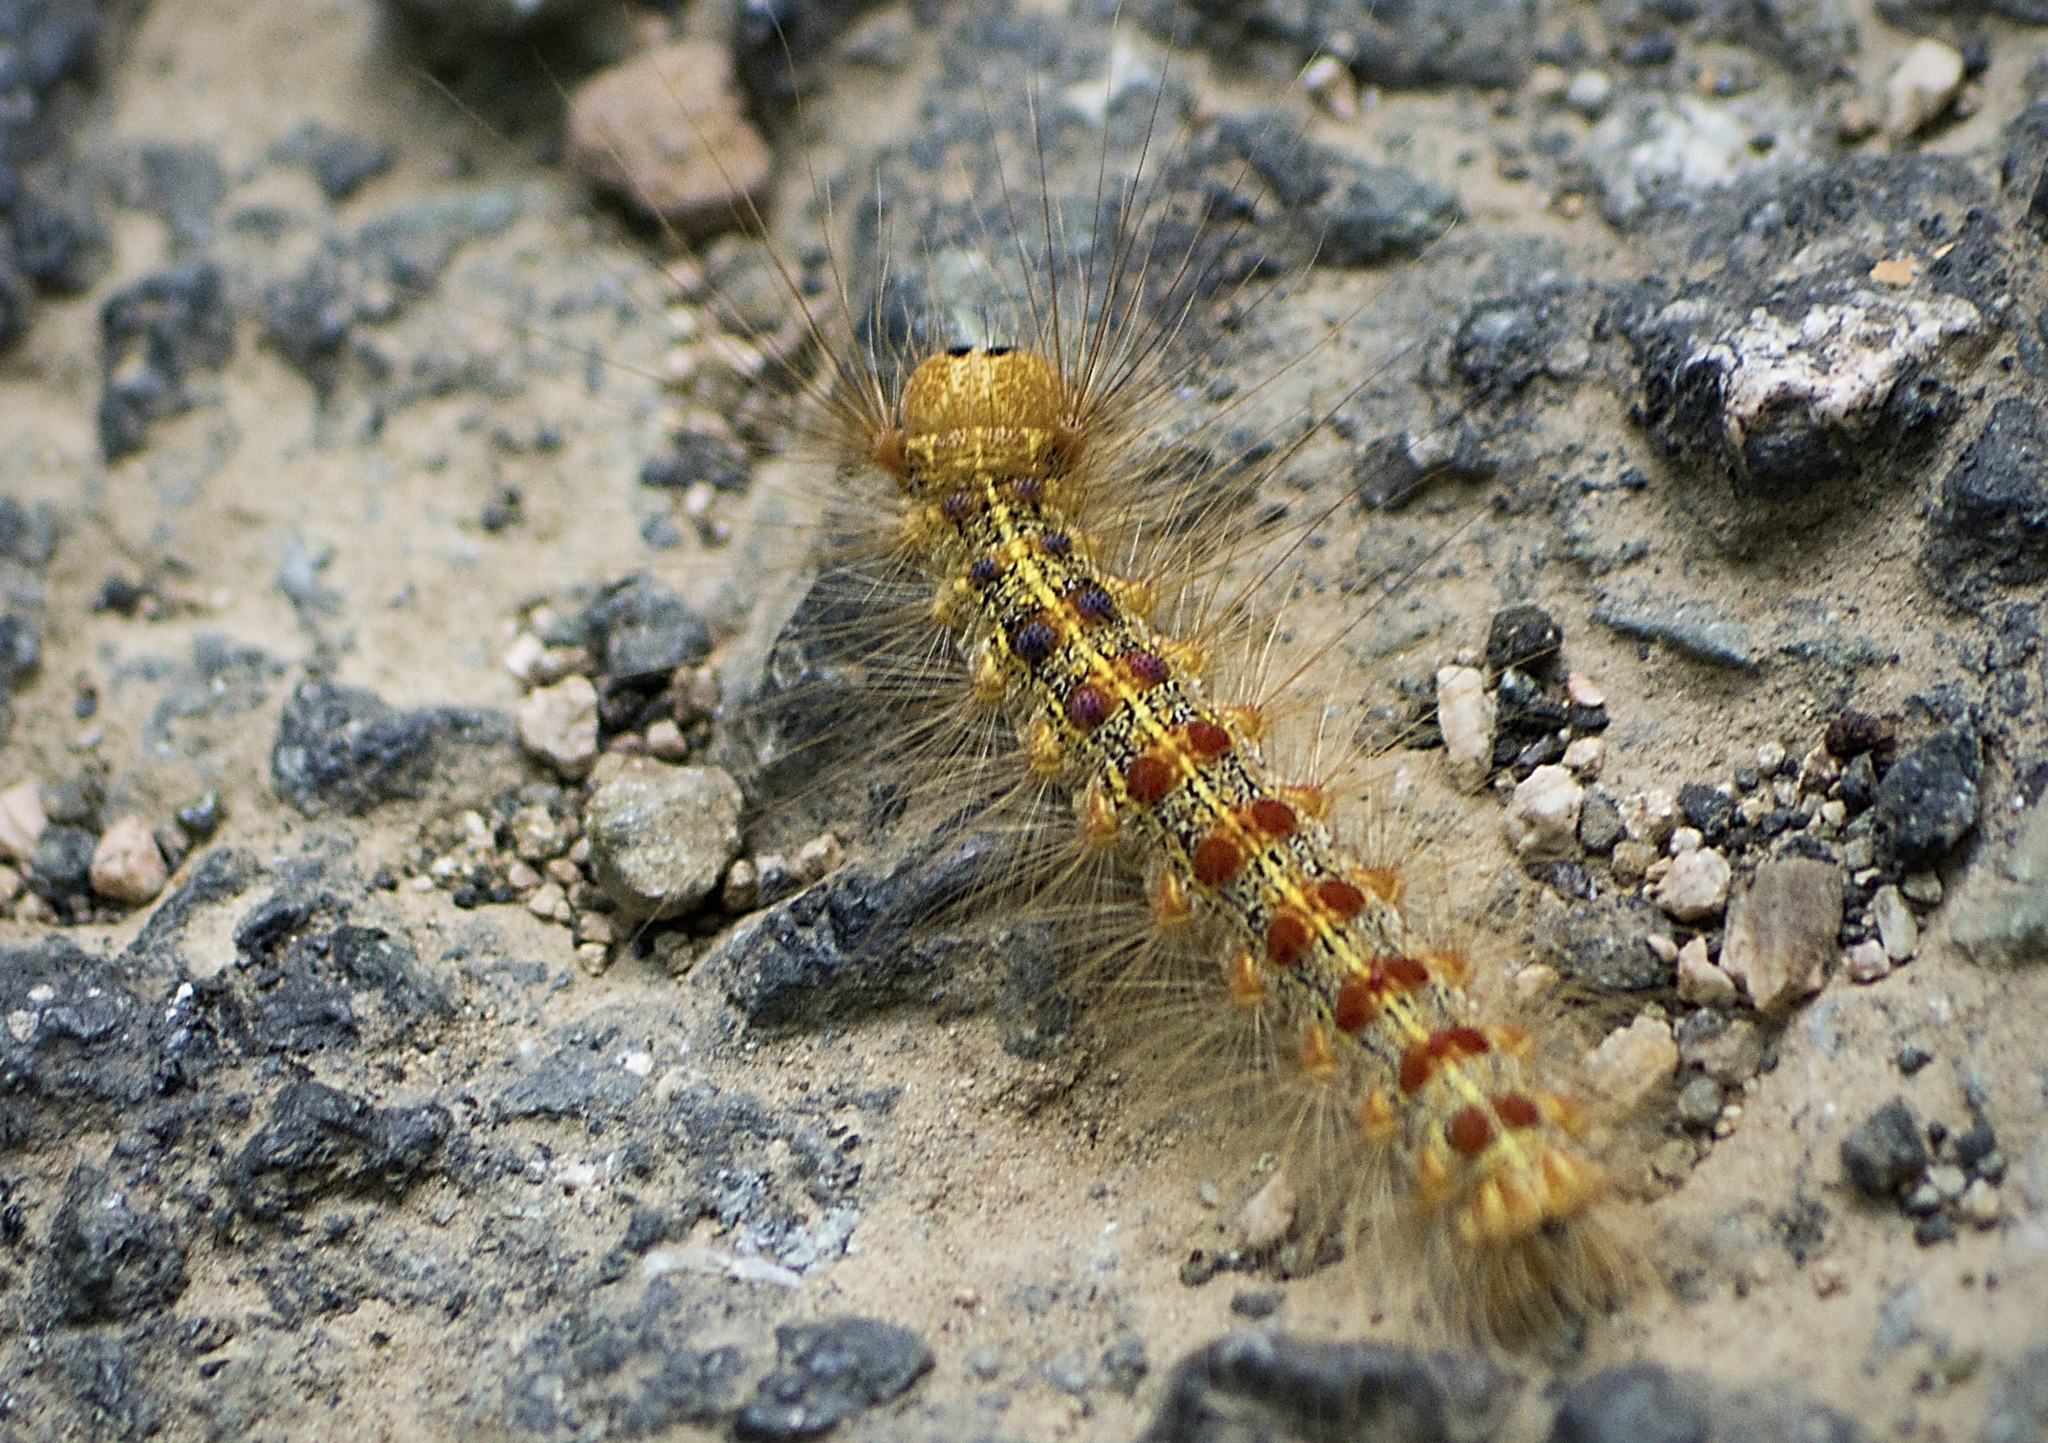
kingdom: Animalia
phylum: Arthropoda
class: Insecta
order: Lepidoptera
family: Erebidae
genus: Lymantria
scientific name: Lymantria dispar
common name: Gypsy moth
